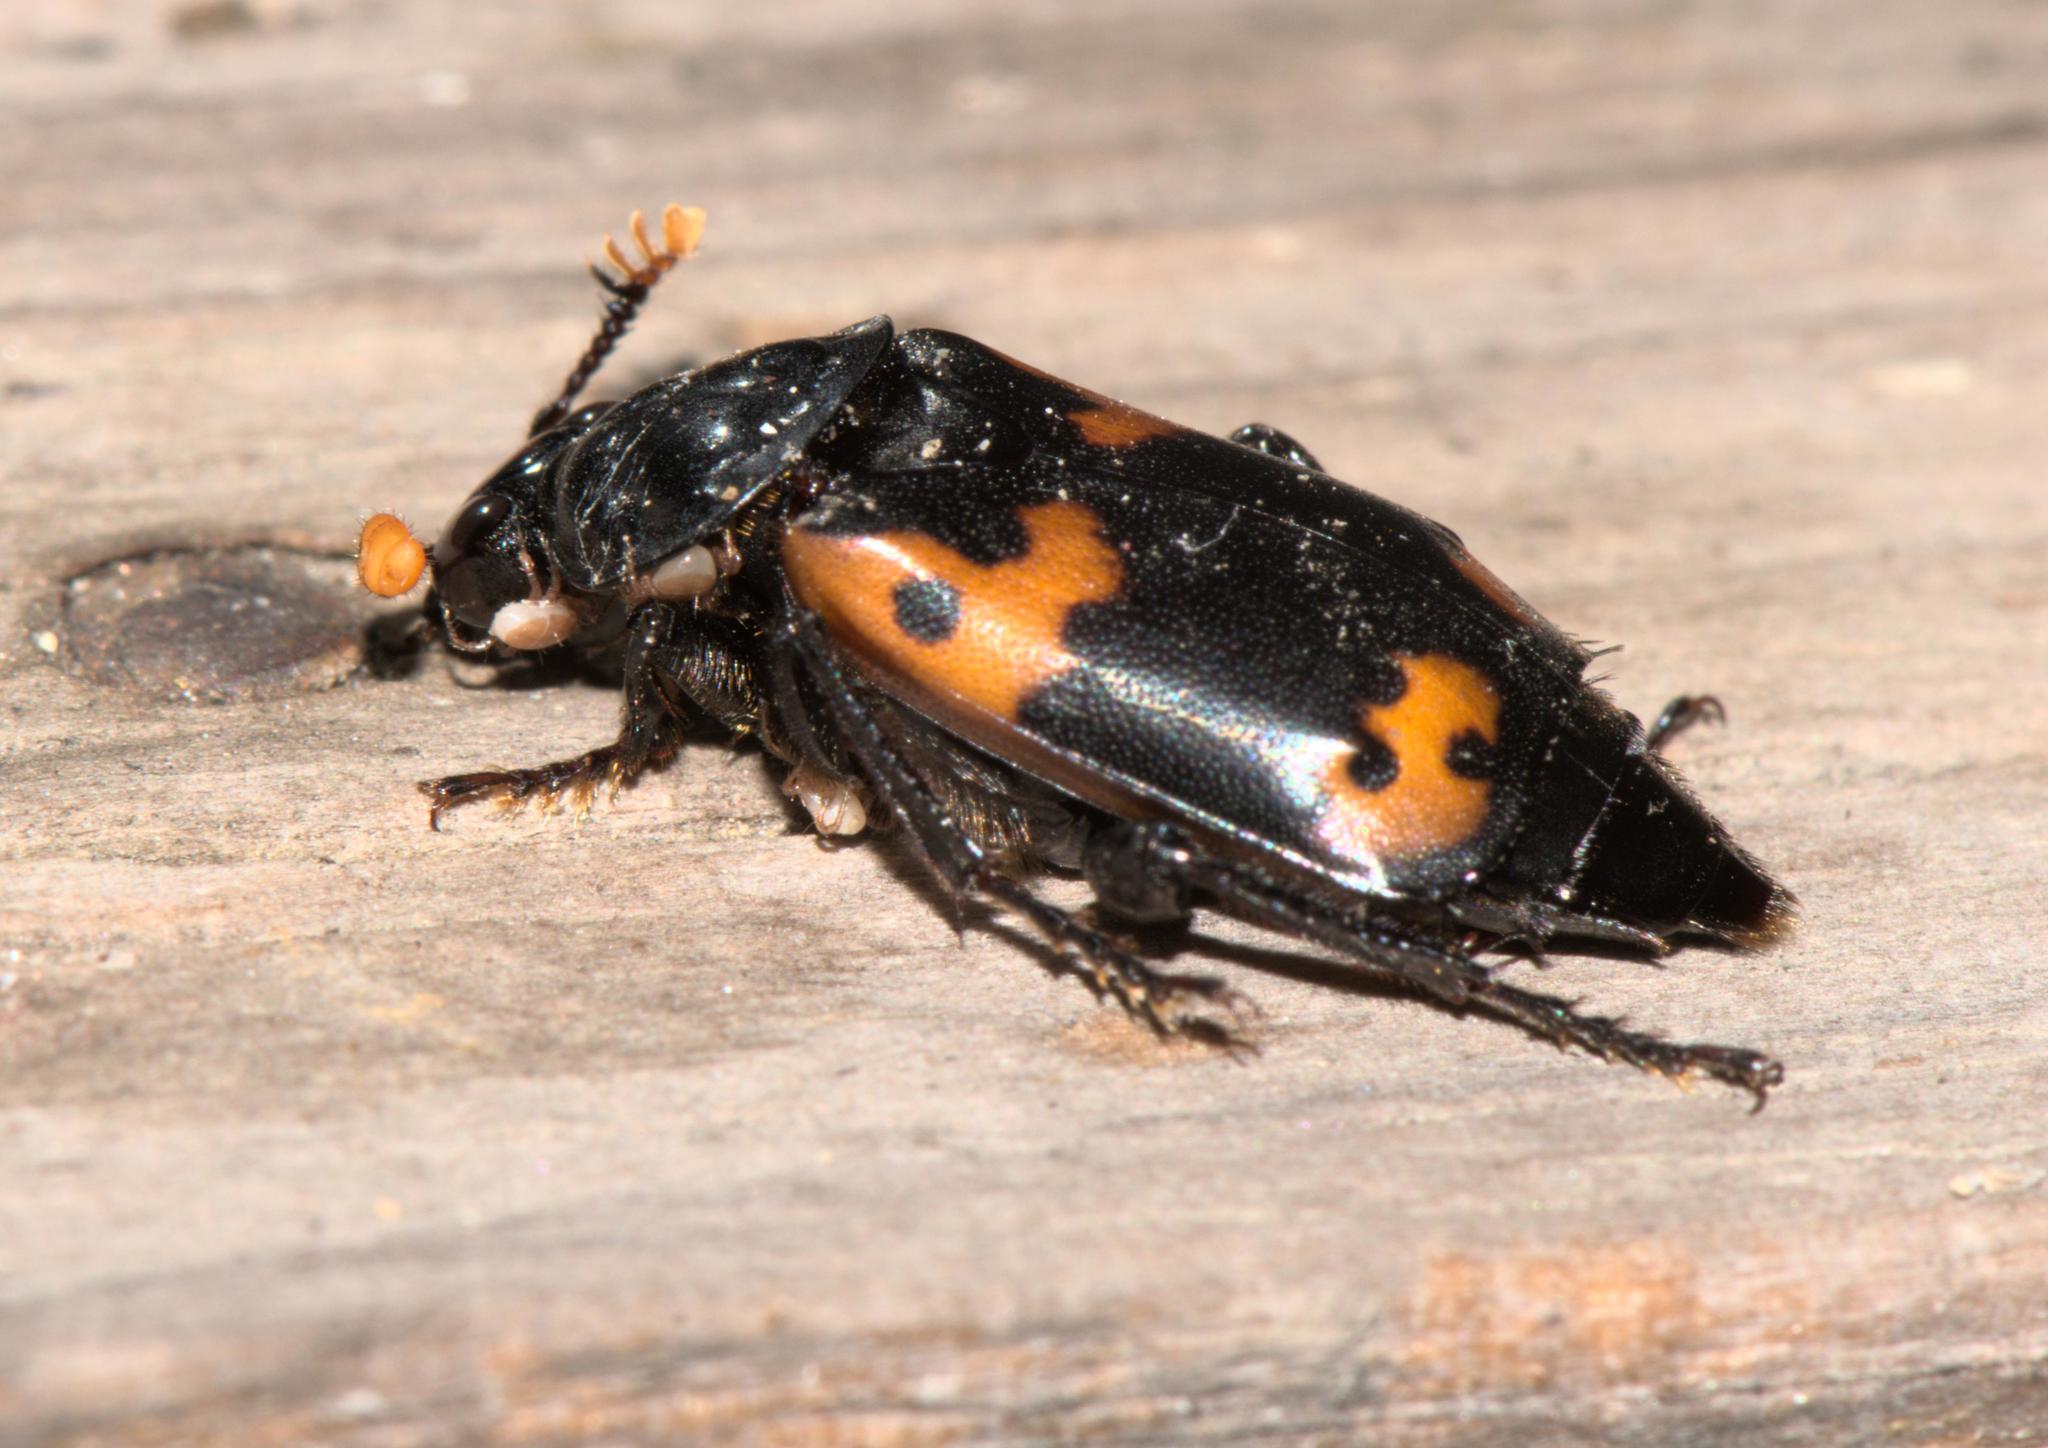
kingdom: Animalia
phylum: Arthropoda
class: Insecta
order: Coleoptera
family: Staphylinidae
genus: Nicrophorus
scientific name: Nicrophorus nepalensis
